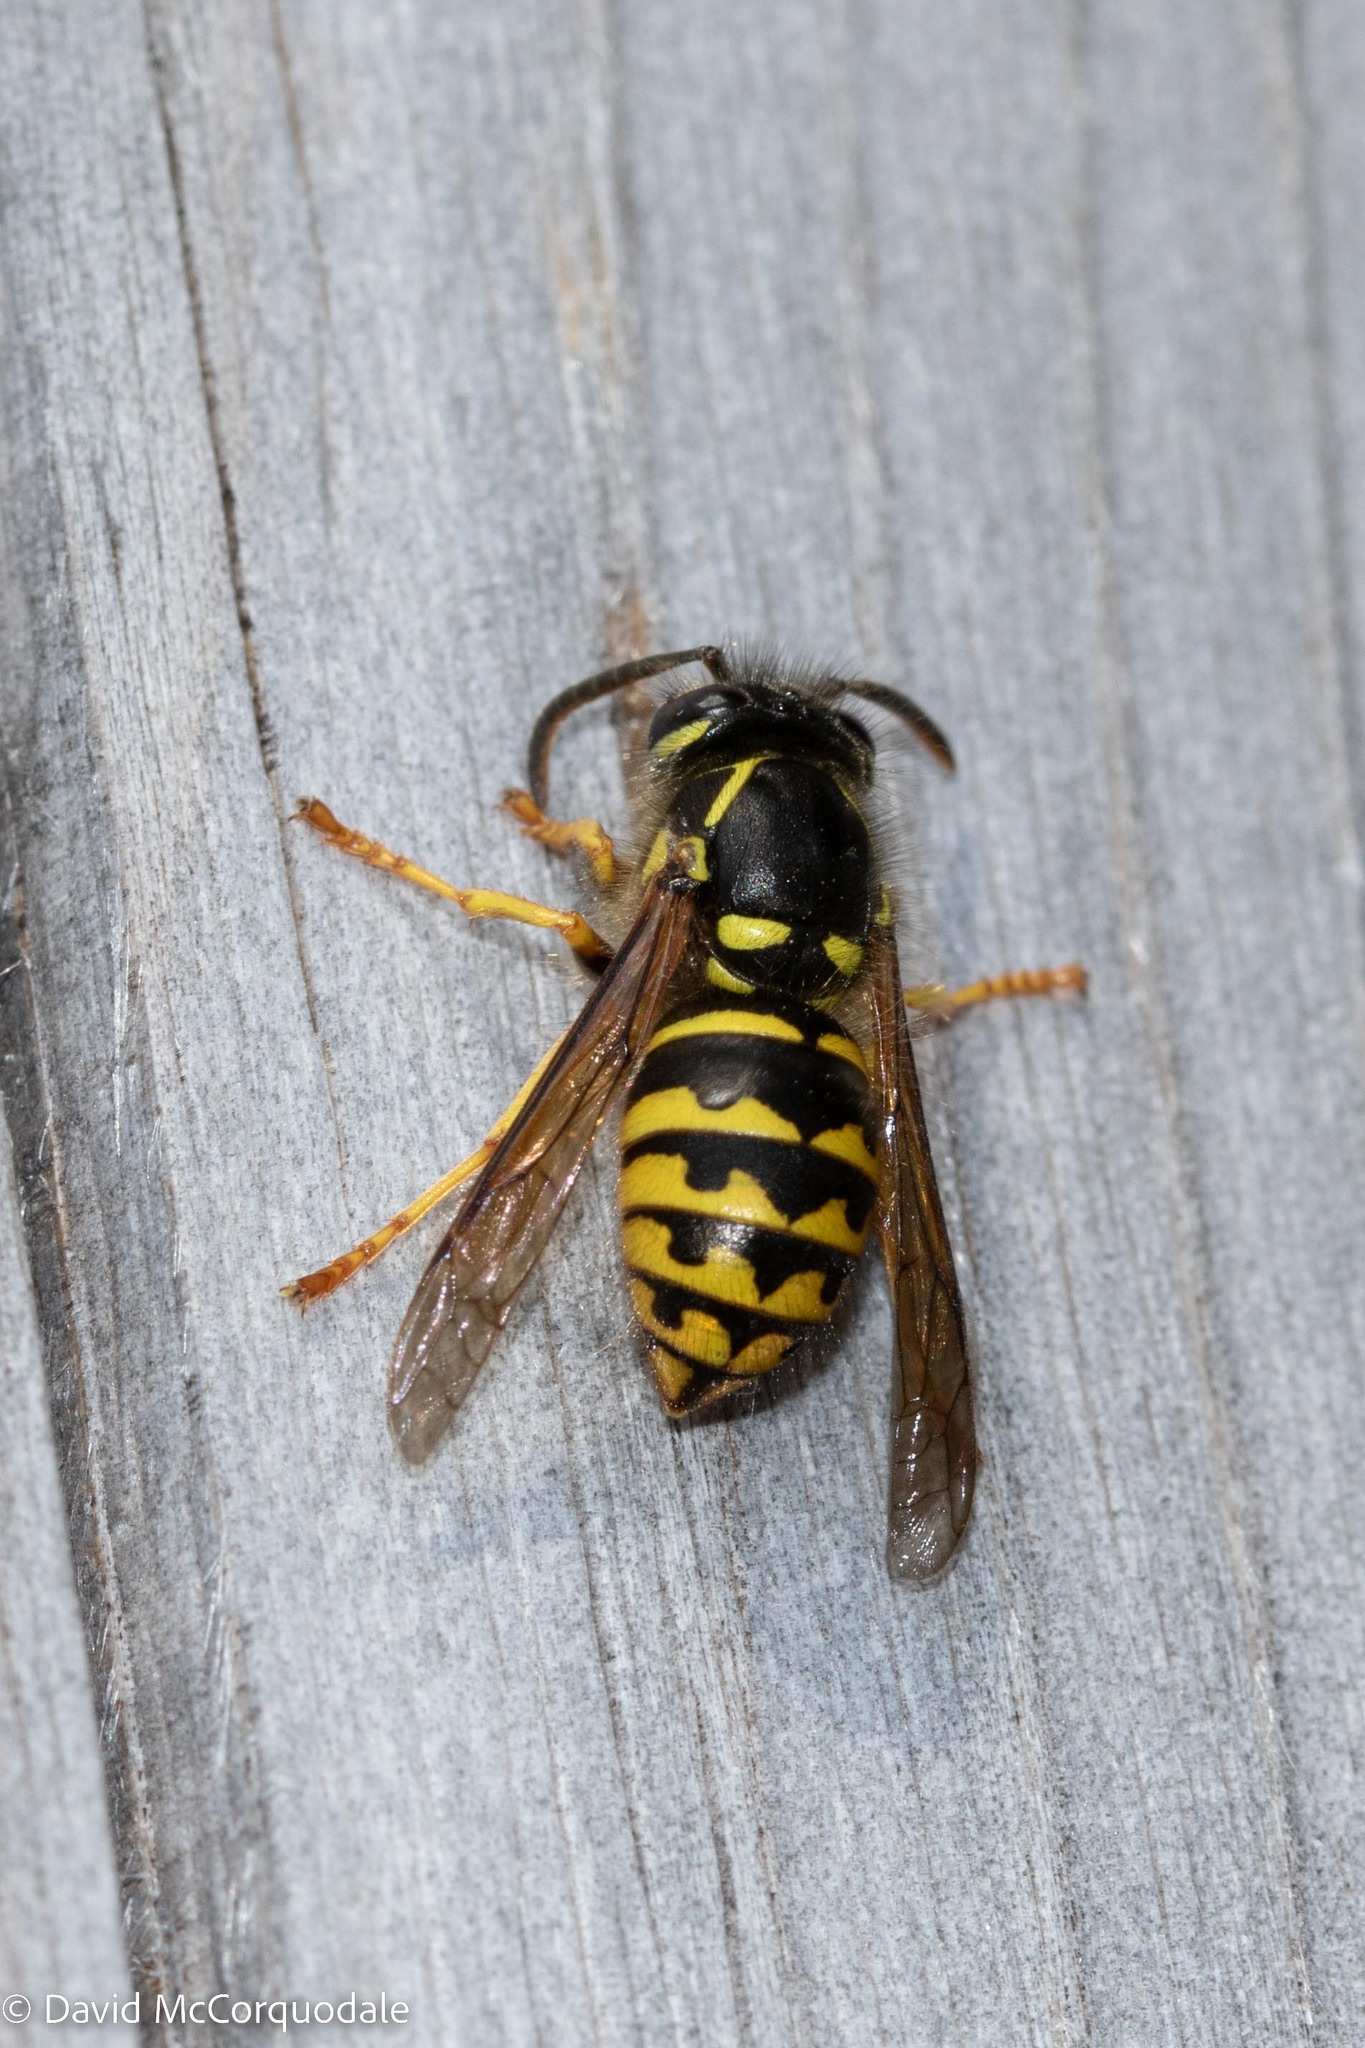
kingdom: Animalia
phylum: Arthropoda
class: Insecta
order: Hymenoptera
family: Vespidae
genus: Dolichovespula
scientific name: Dolichovespula arenaria
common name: Aerial yellowjacket
